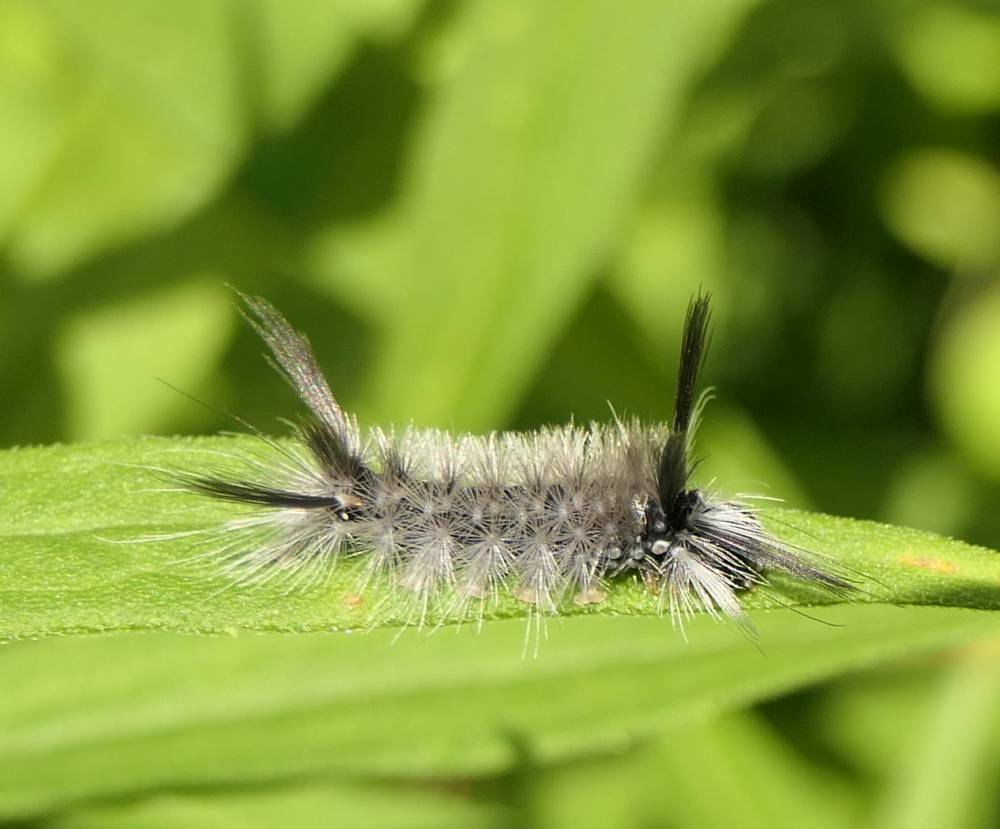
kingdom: Animalia
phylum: Arthropoda
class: Insecta
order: Lepidoptera
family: Erebidae
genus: Halysidota
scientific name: Halysidota tessellaris
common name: Banded tussock moth
